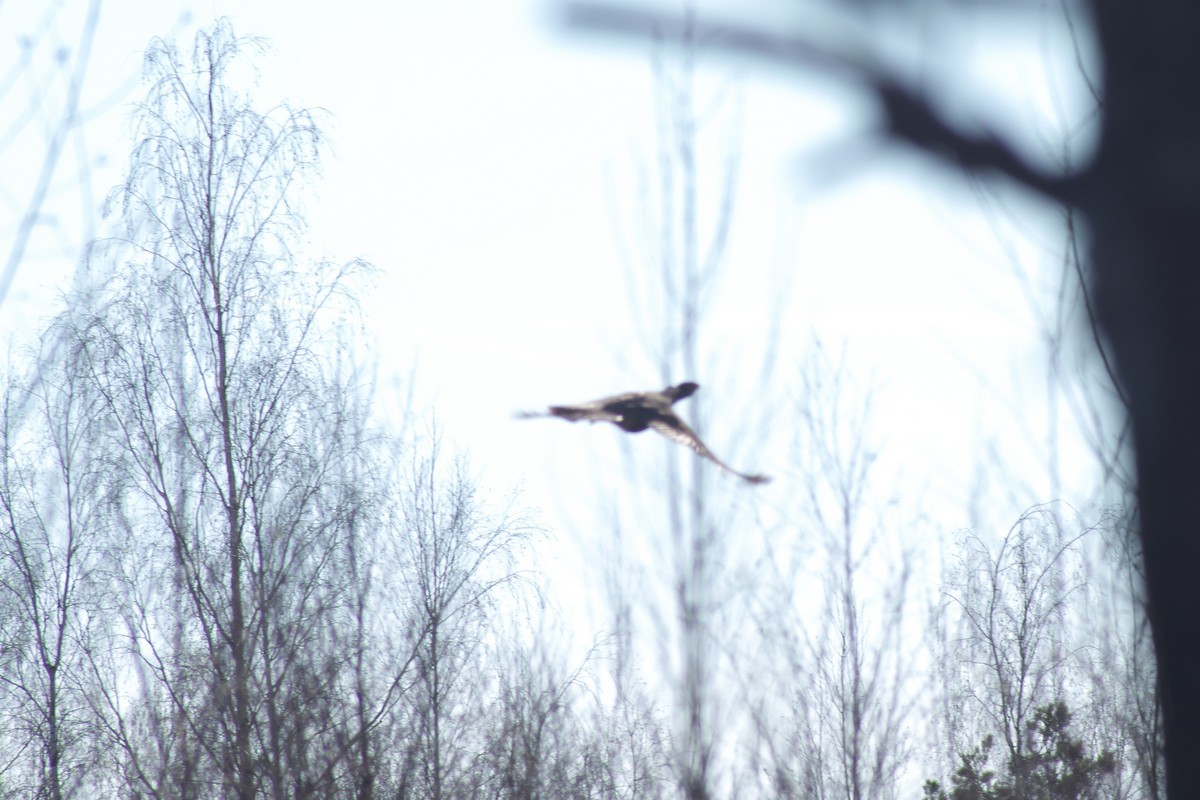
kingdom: Animalia
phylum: Chordata
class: Aves
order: Galliformes
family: Phasianidae
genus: Tetrao
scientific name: Tetrao urogallus
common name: Western capercaillie
